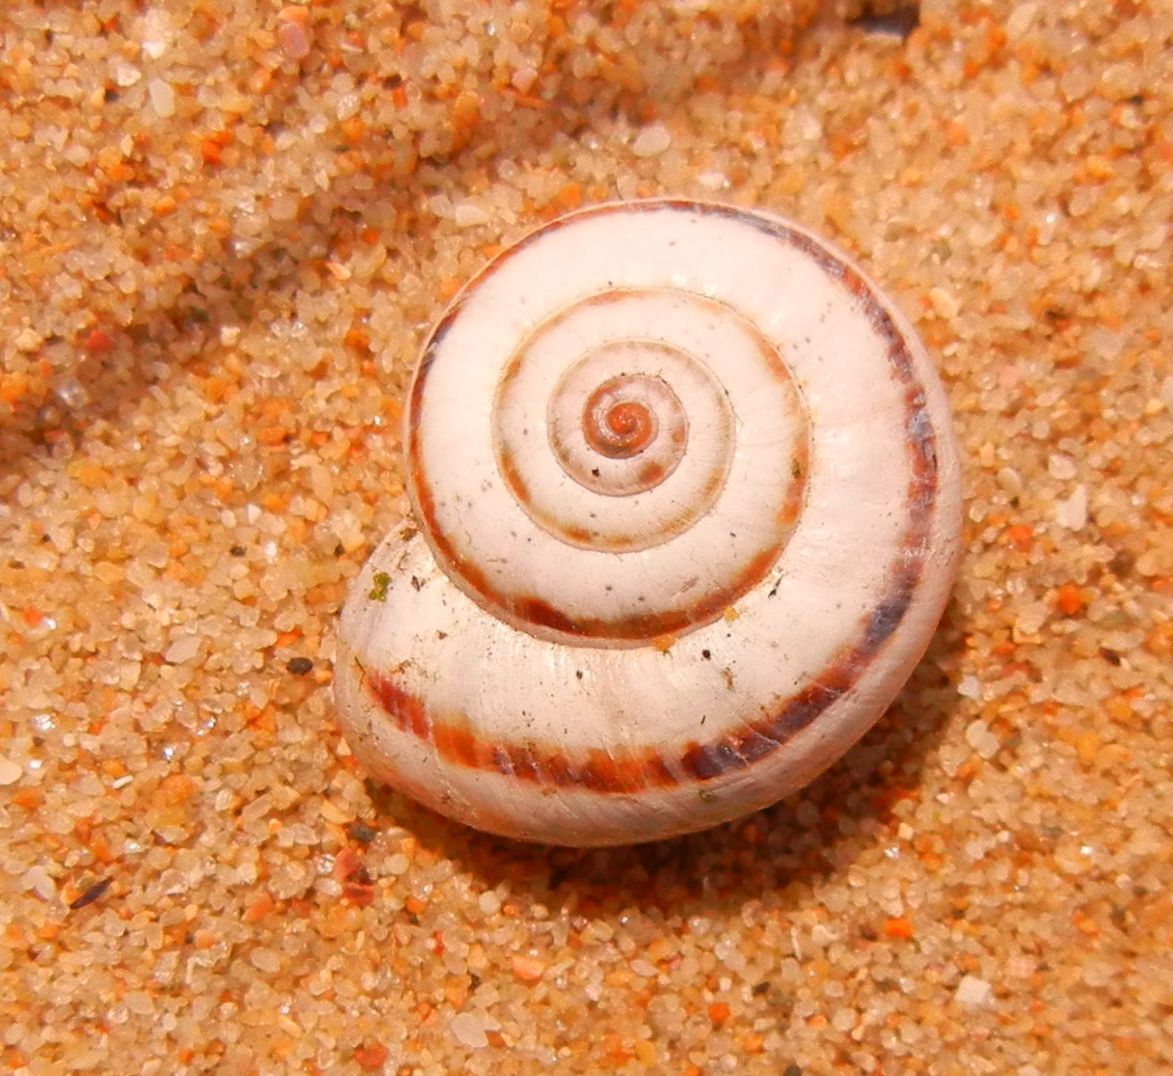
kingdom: Animalia
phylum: Mollusca
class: Gastropoda
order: Stylommatophora
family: Geomitridae
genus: Xeropicta
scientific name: Xeropicta krynickii
